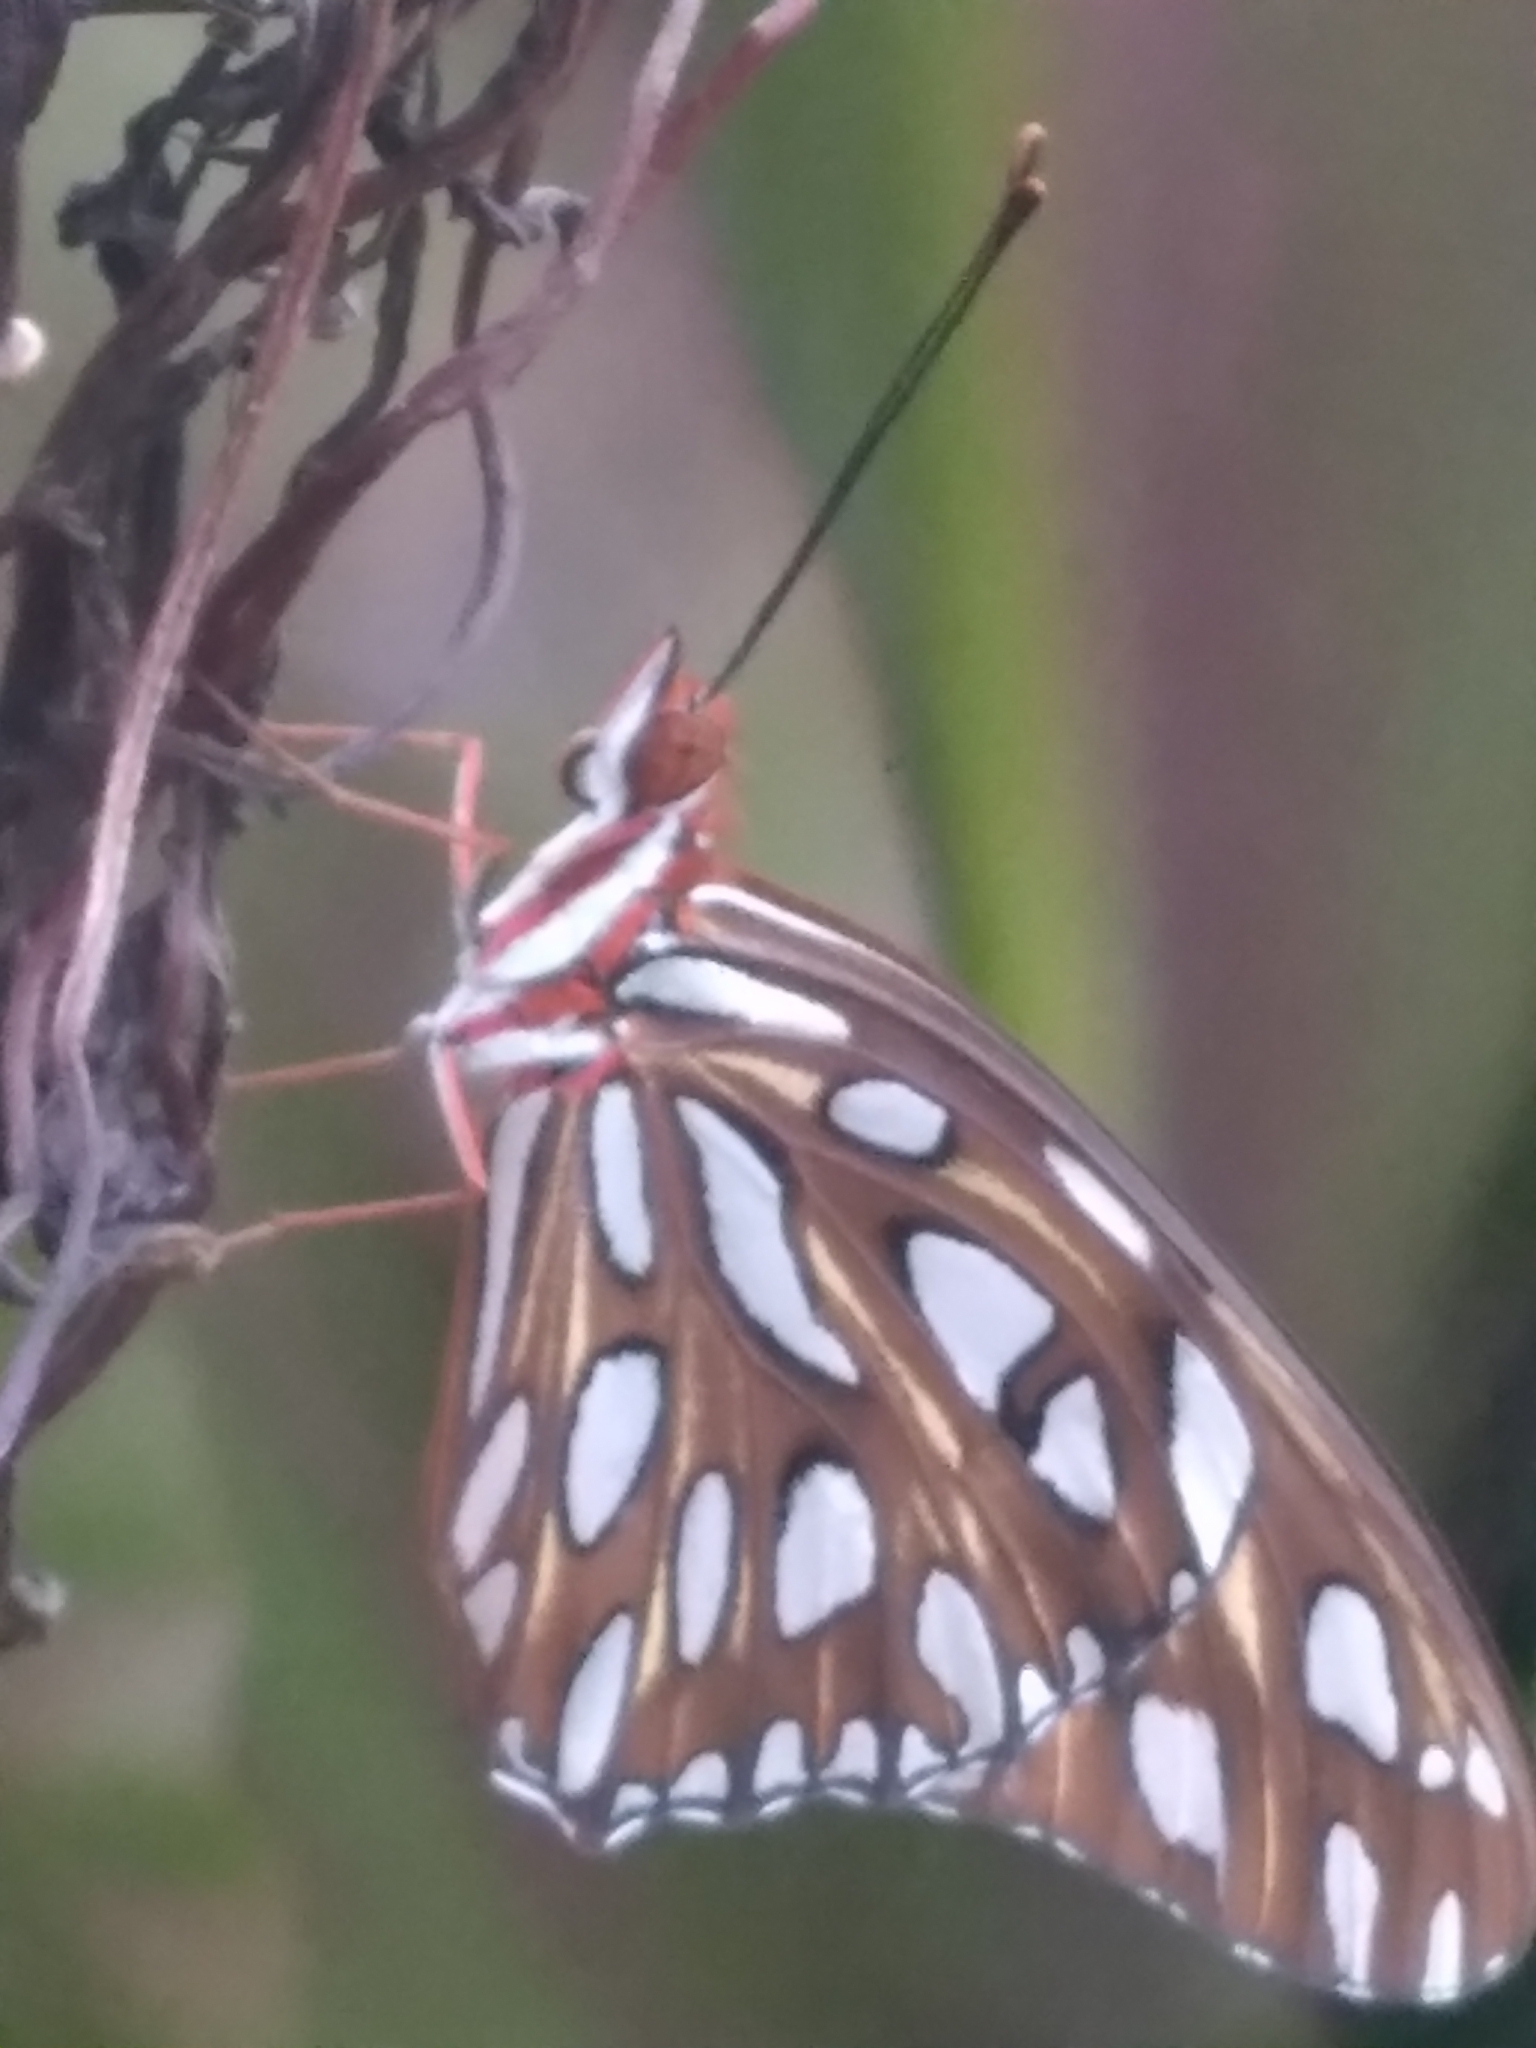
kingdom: Animalia
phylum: Arthropoda
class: Insecta
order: Lepidoptera
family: Nymphalidae
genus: Dione
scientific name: Dione vanillae
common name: Gulf fritillary
